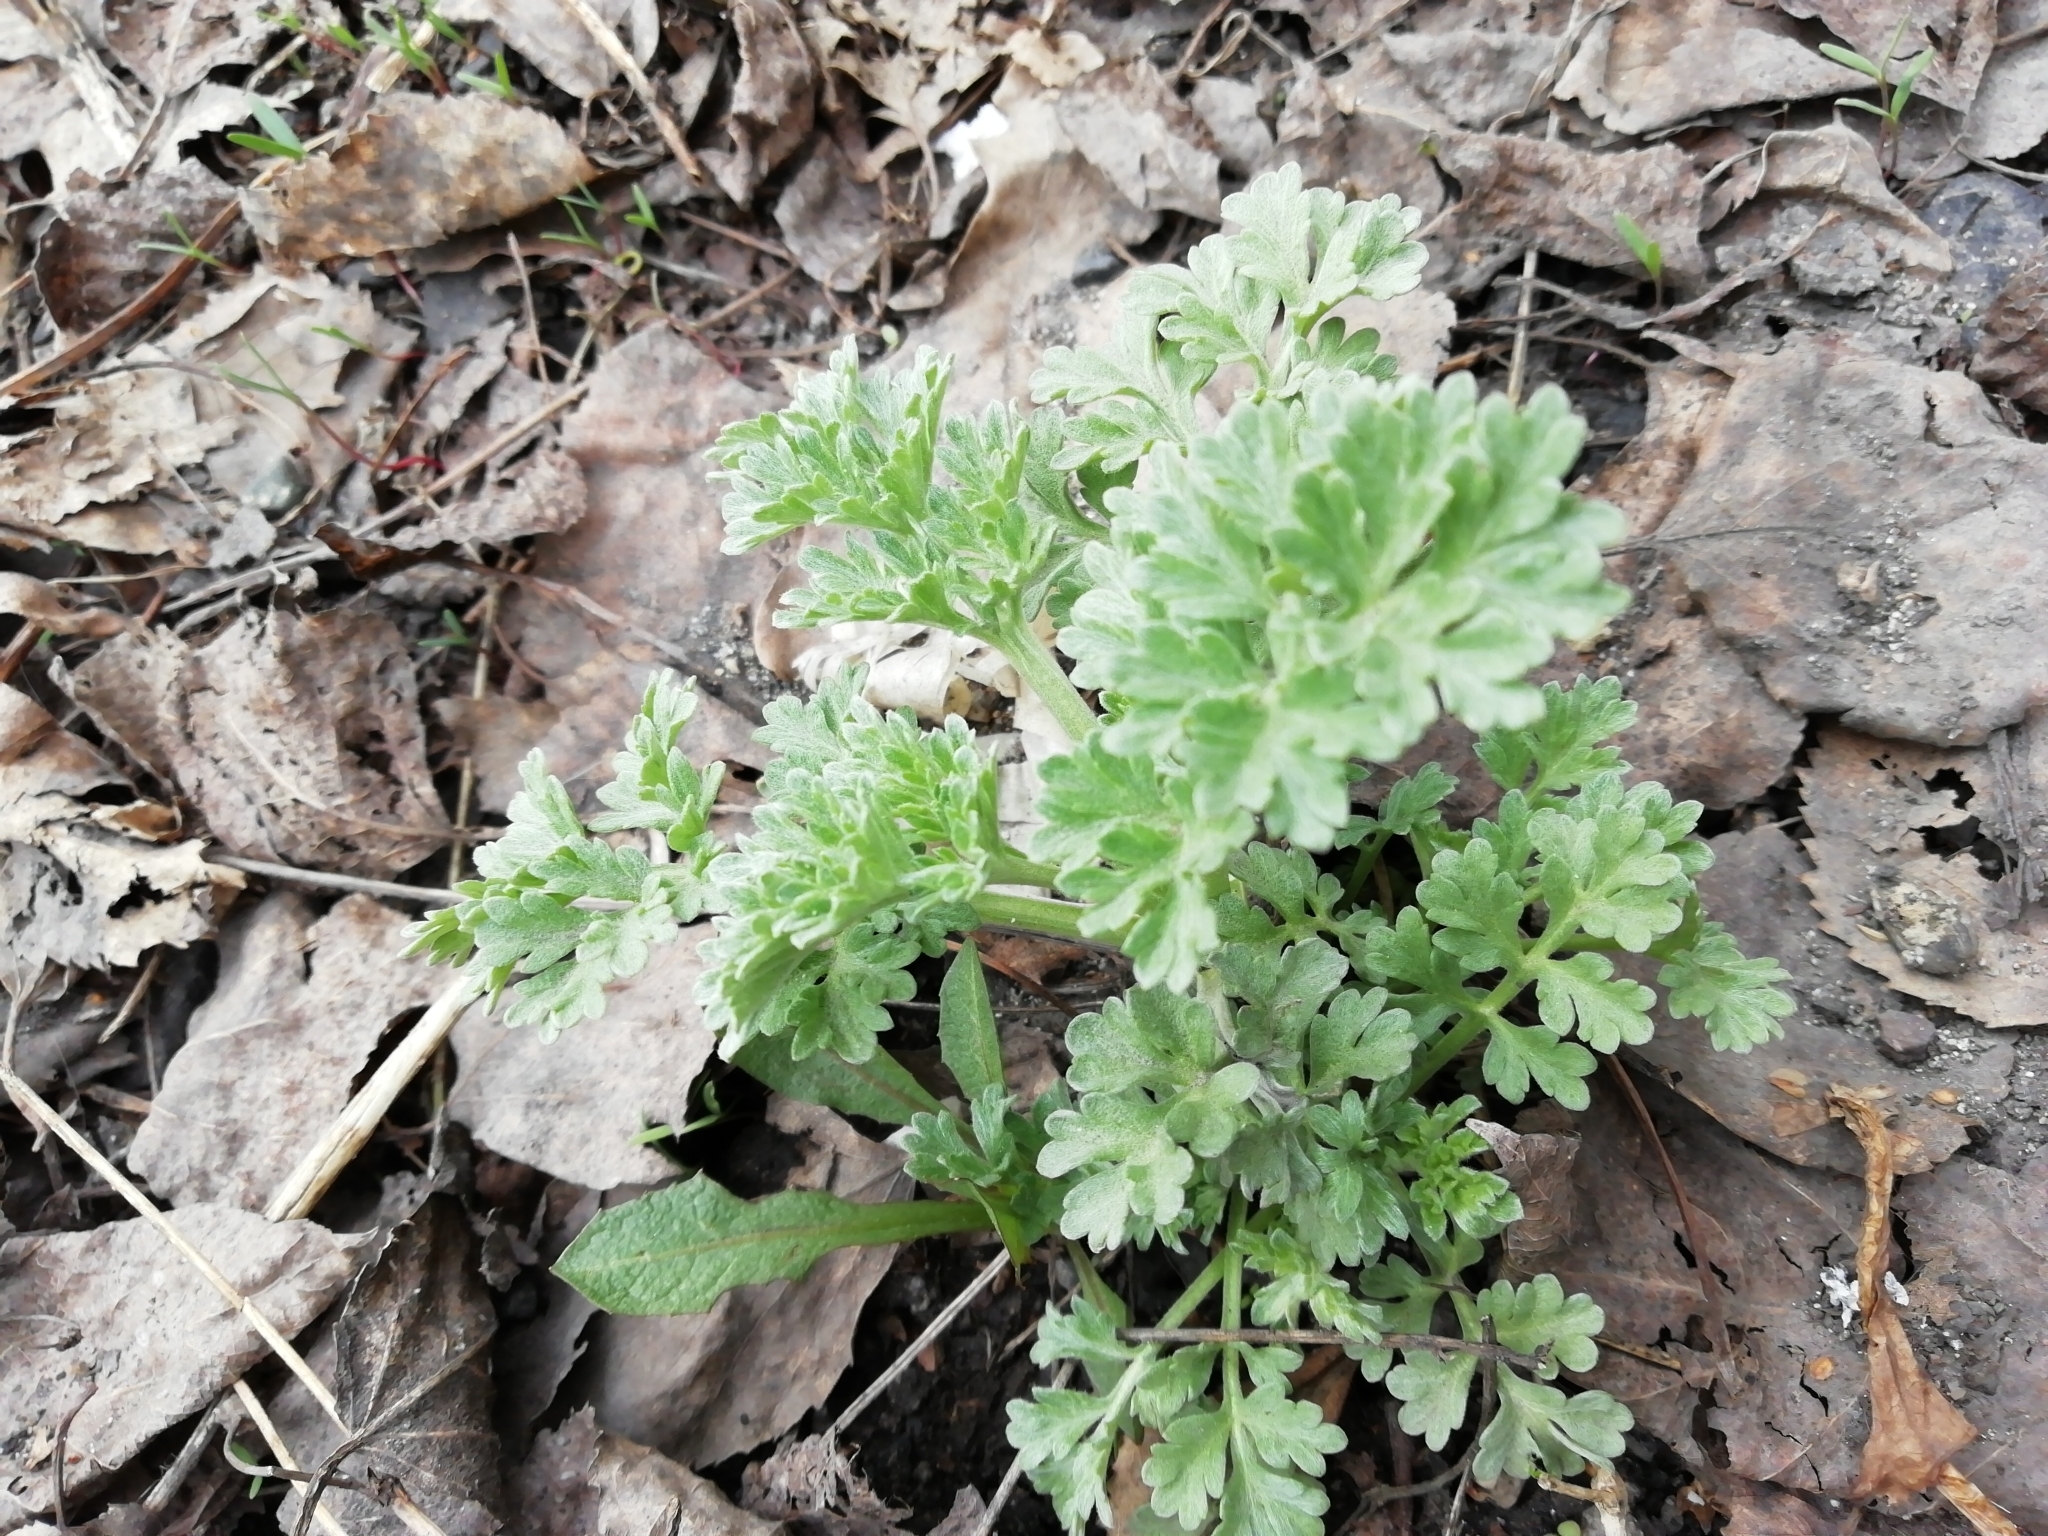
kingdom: Plantae
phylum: Tracheophyta
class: Magnoliopsida
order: Asterales
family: Asteraceae
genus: Artemisia
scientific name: Artemisia absinthium
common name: Wormwood
